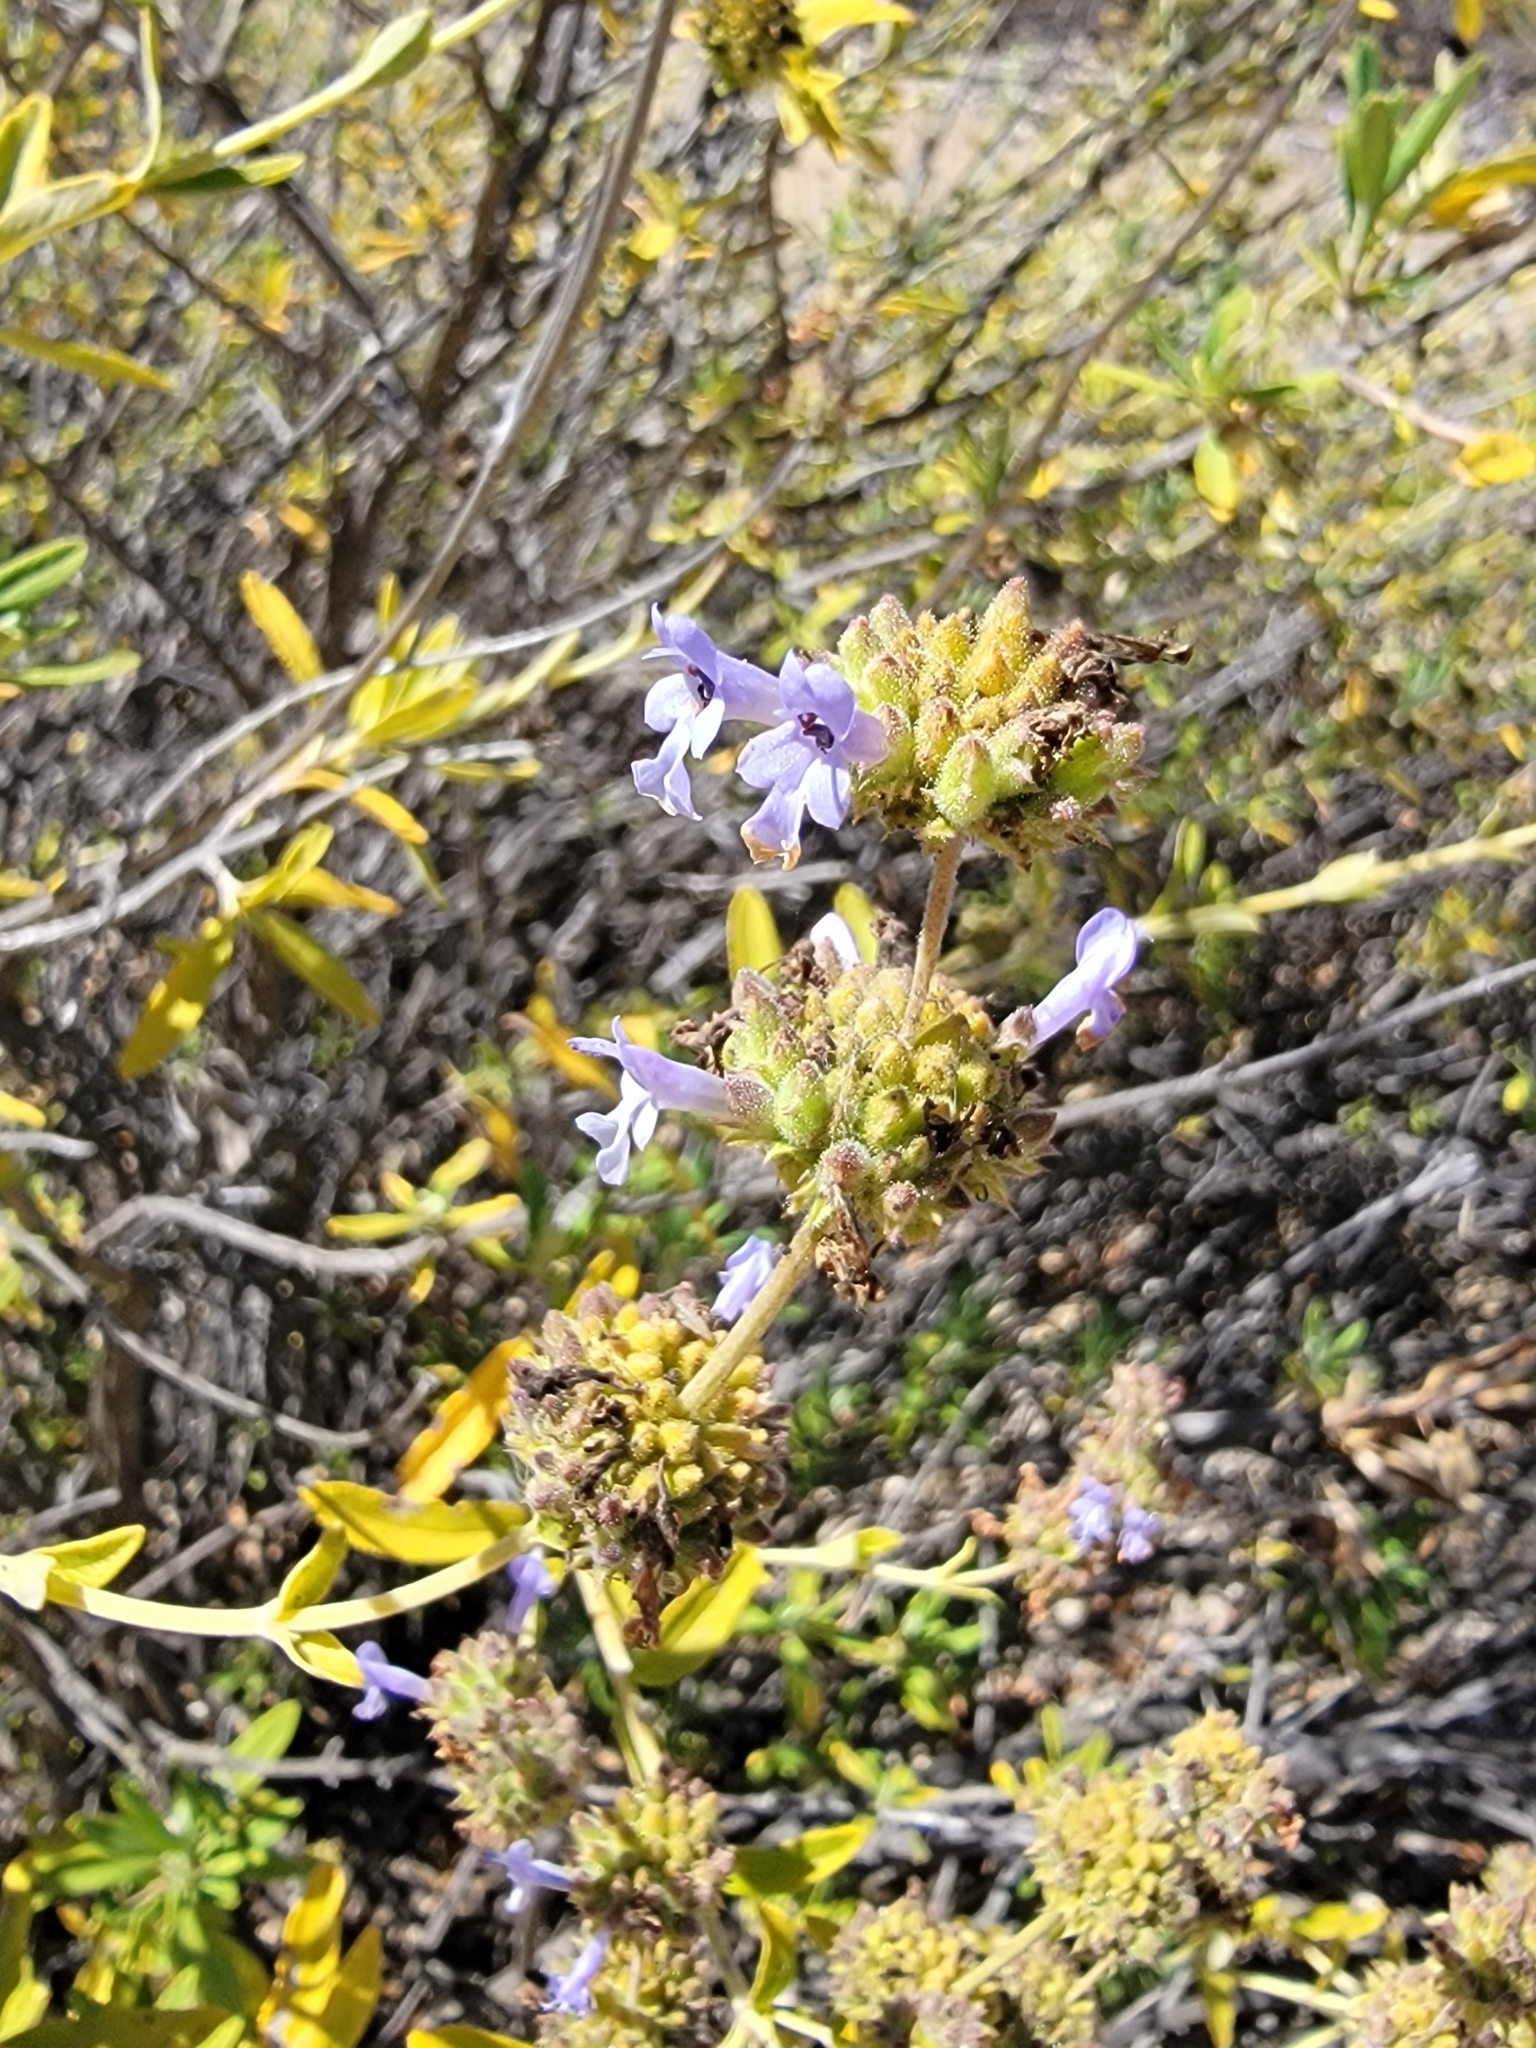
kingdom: Plantae
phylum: Tracheophyta
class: Magnoliopsida
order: Lamiales
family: Lamiaceae
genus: Salvia
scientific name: Salvia mellifera
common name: Black sage
